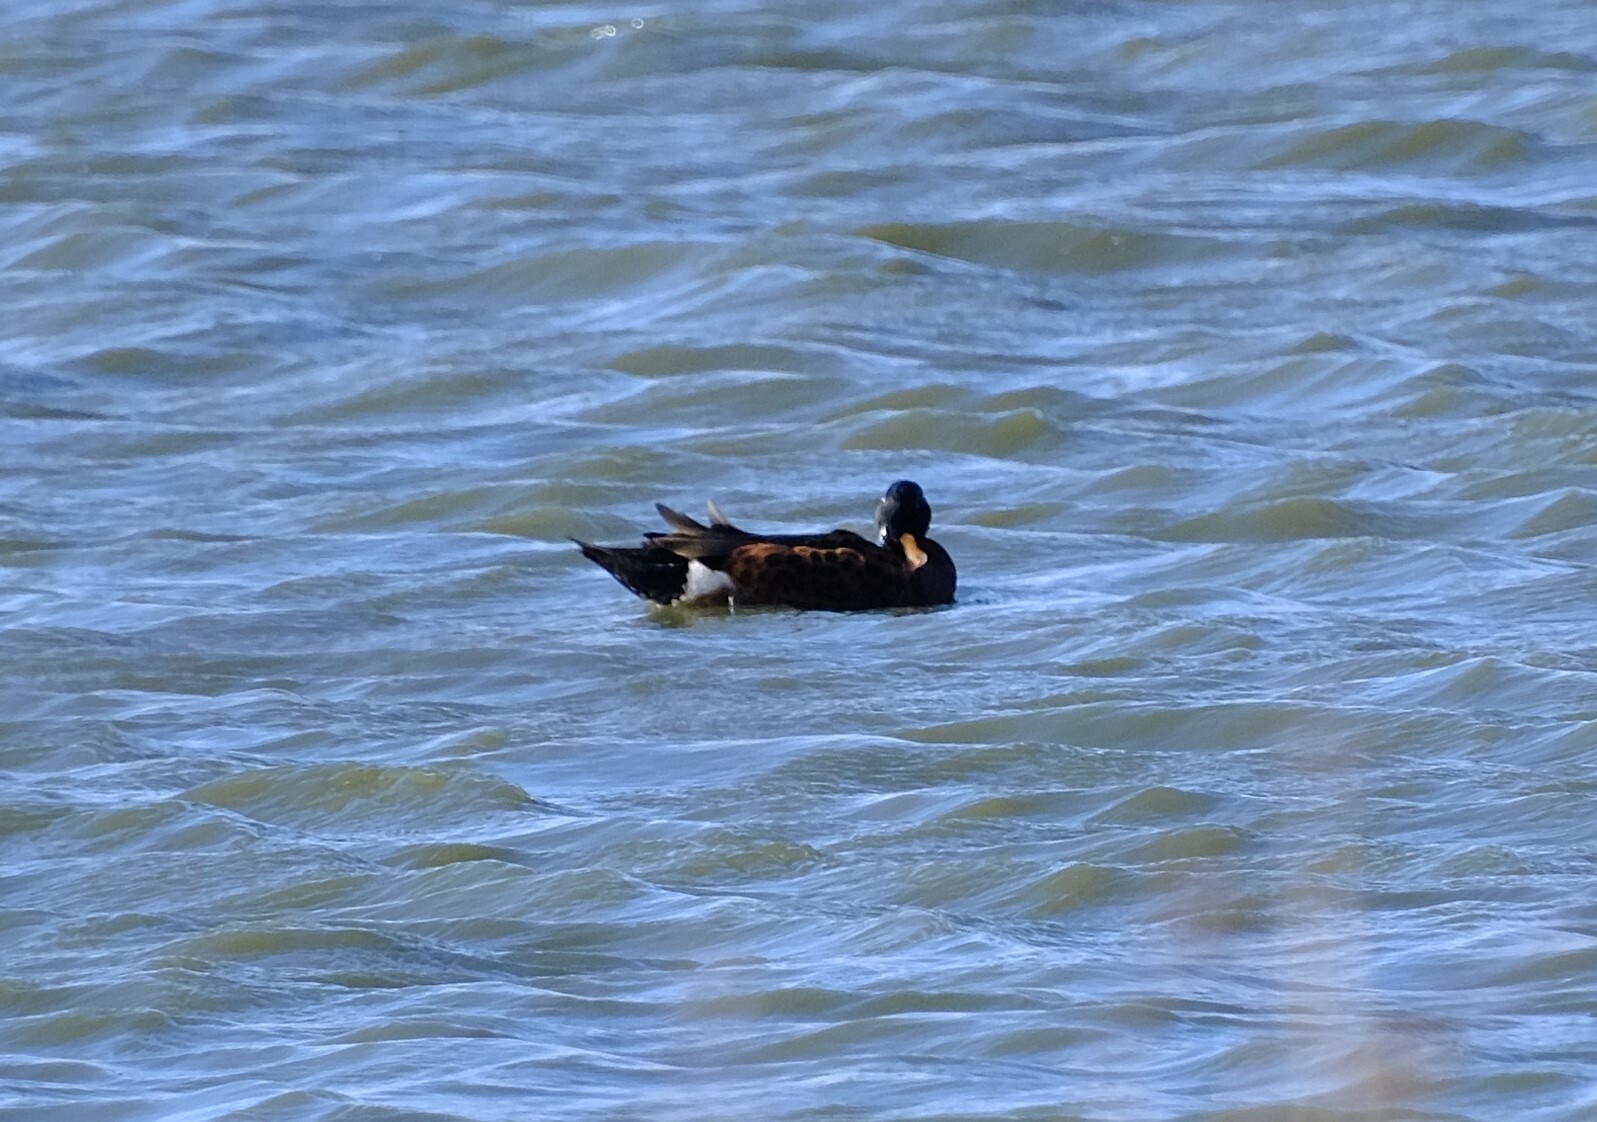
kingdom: Animalia
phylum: Chordata
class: Aves
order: Anseriformes
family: Anatidae
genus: Anas
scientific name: Anas castanea
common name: Chestnut teal
